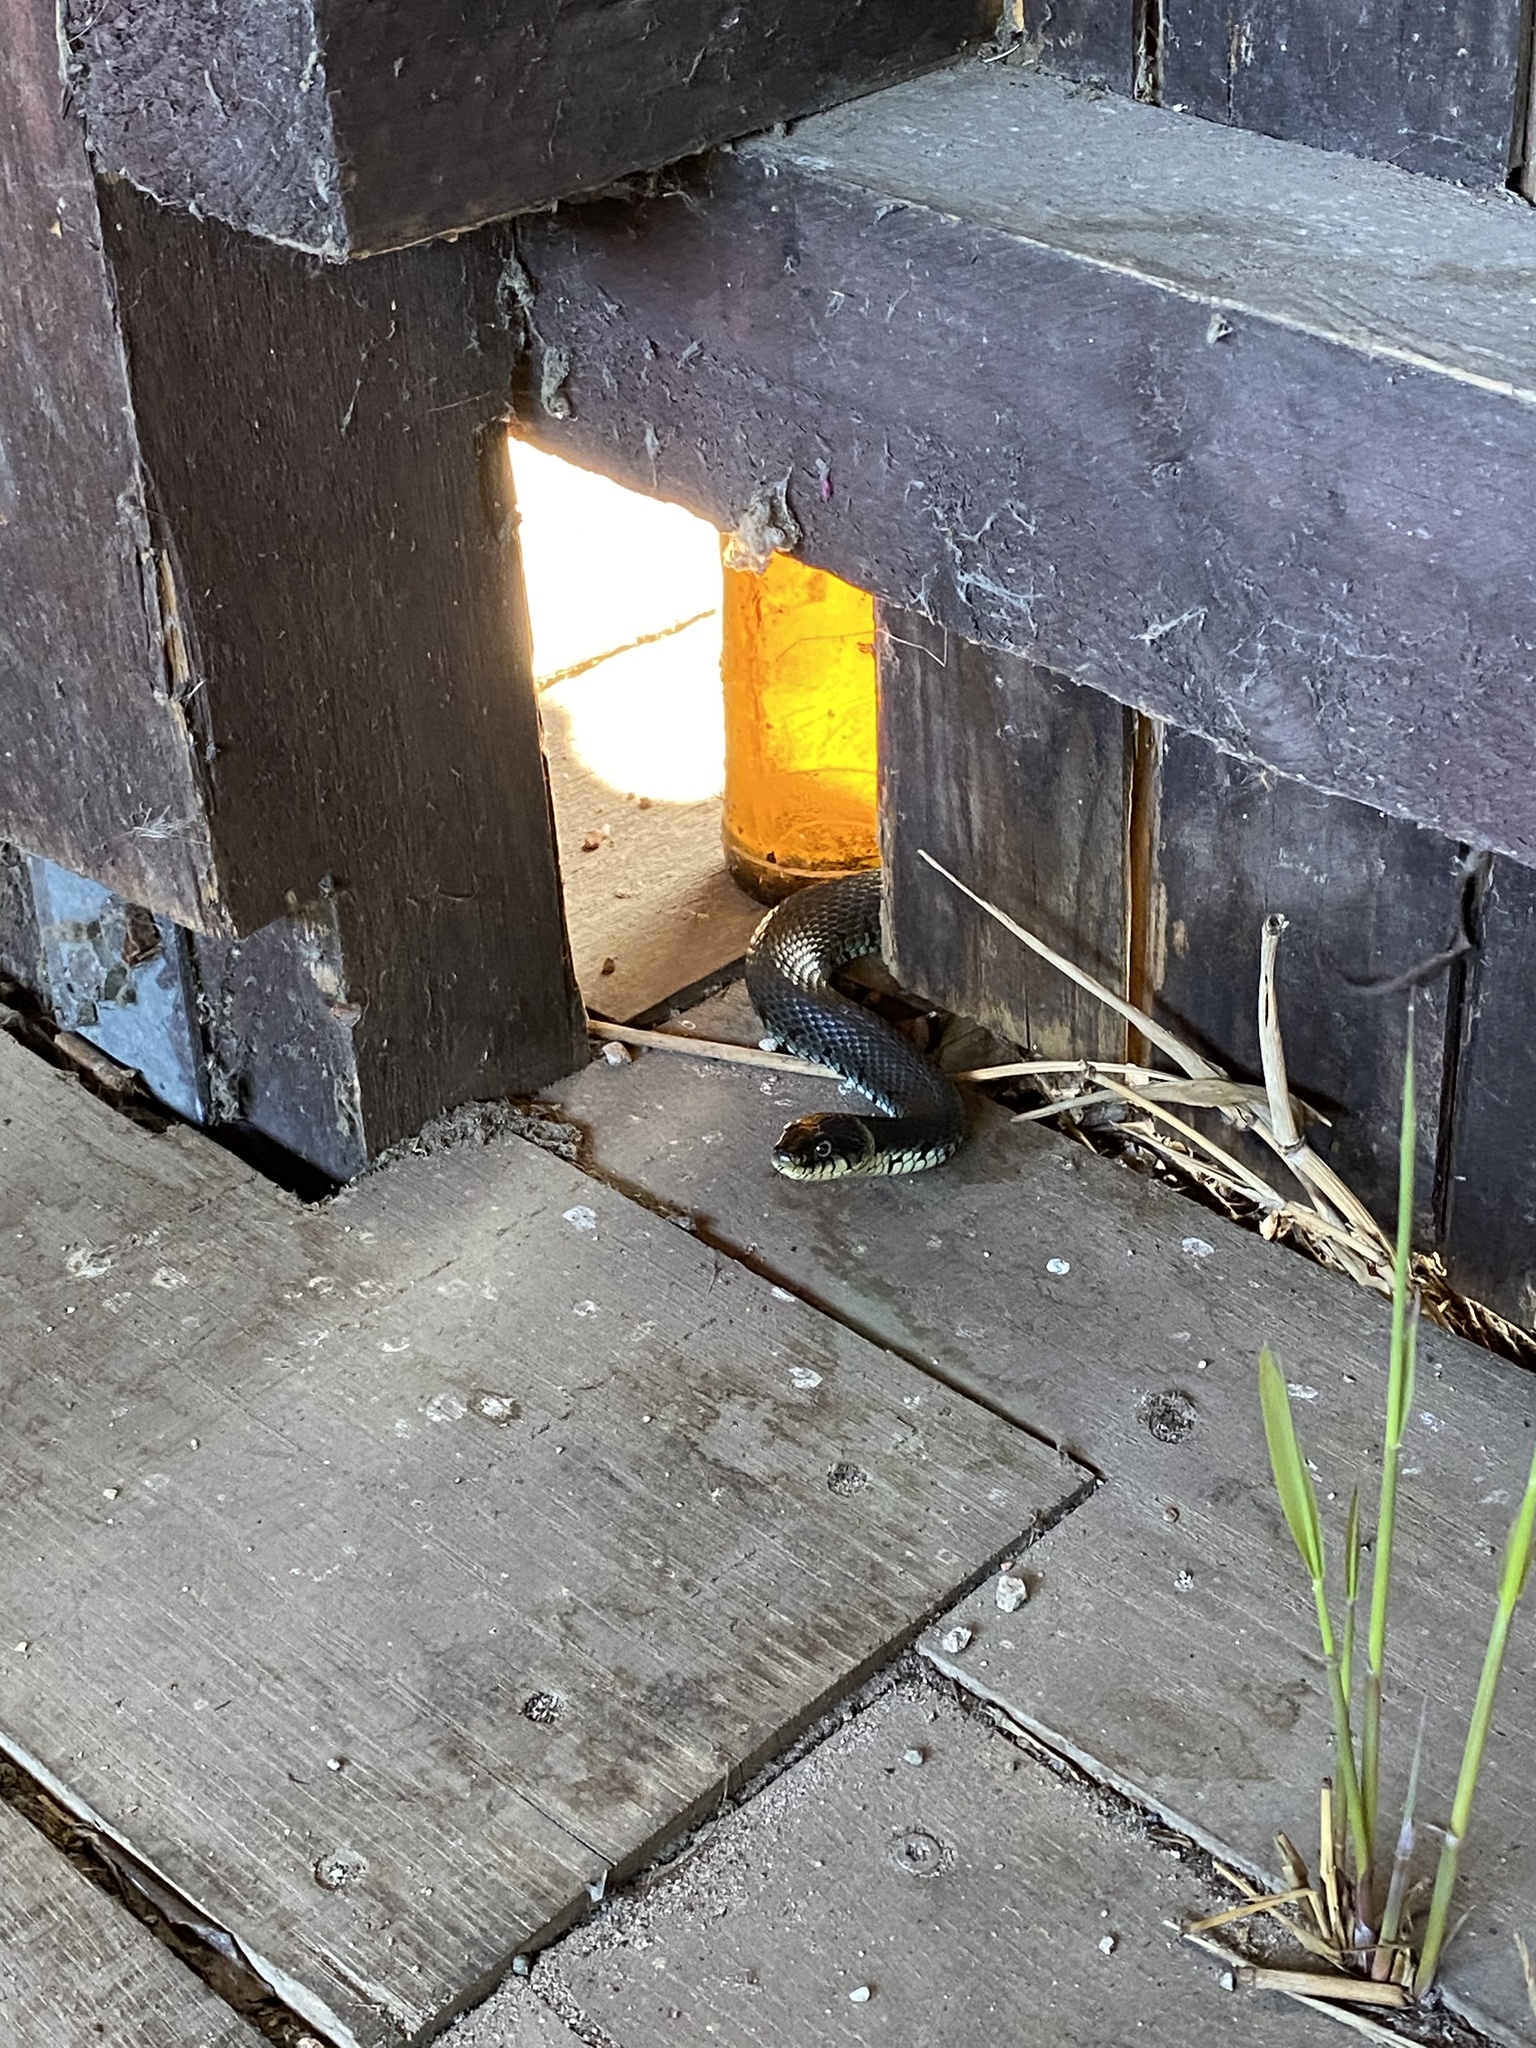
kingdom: Animalia
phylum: Chordata
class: Squamata
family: Colubridae
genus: Natrix
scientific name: Natrix helvetica
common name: Banded grass snake
